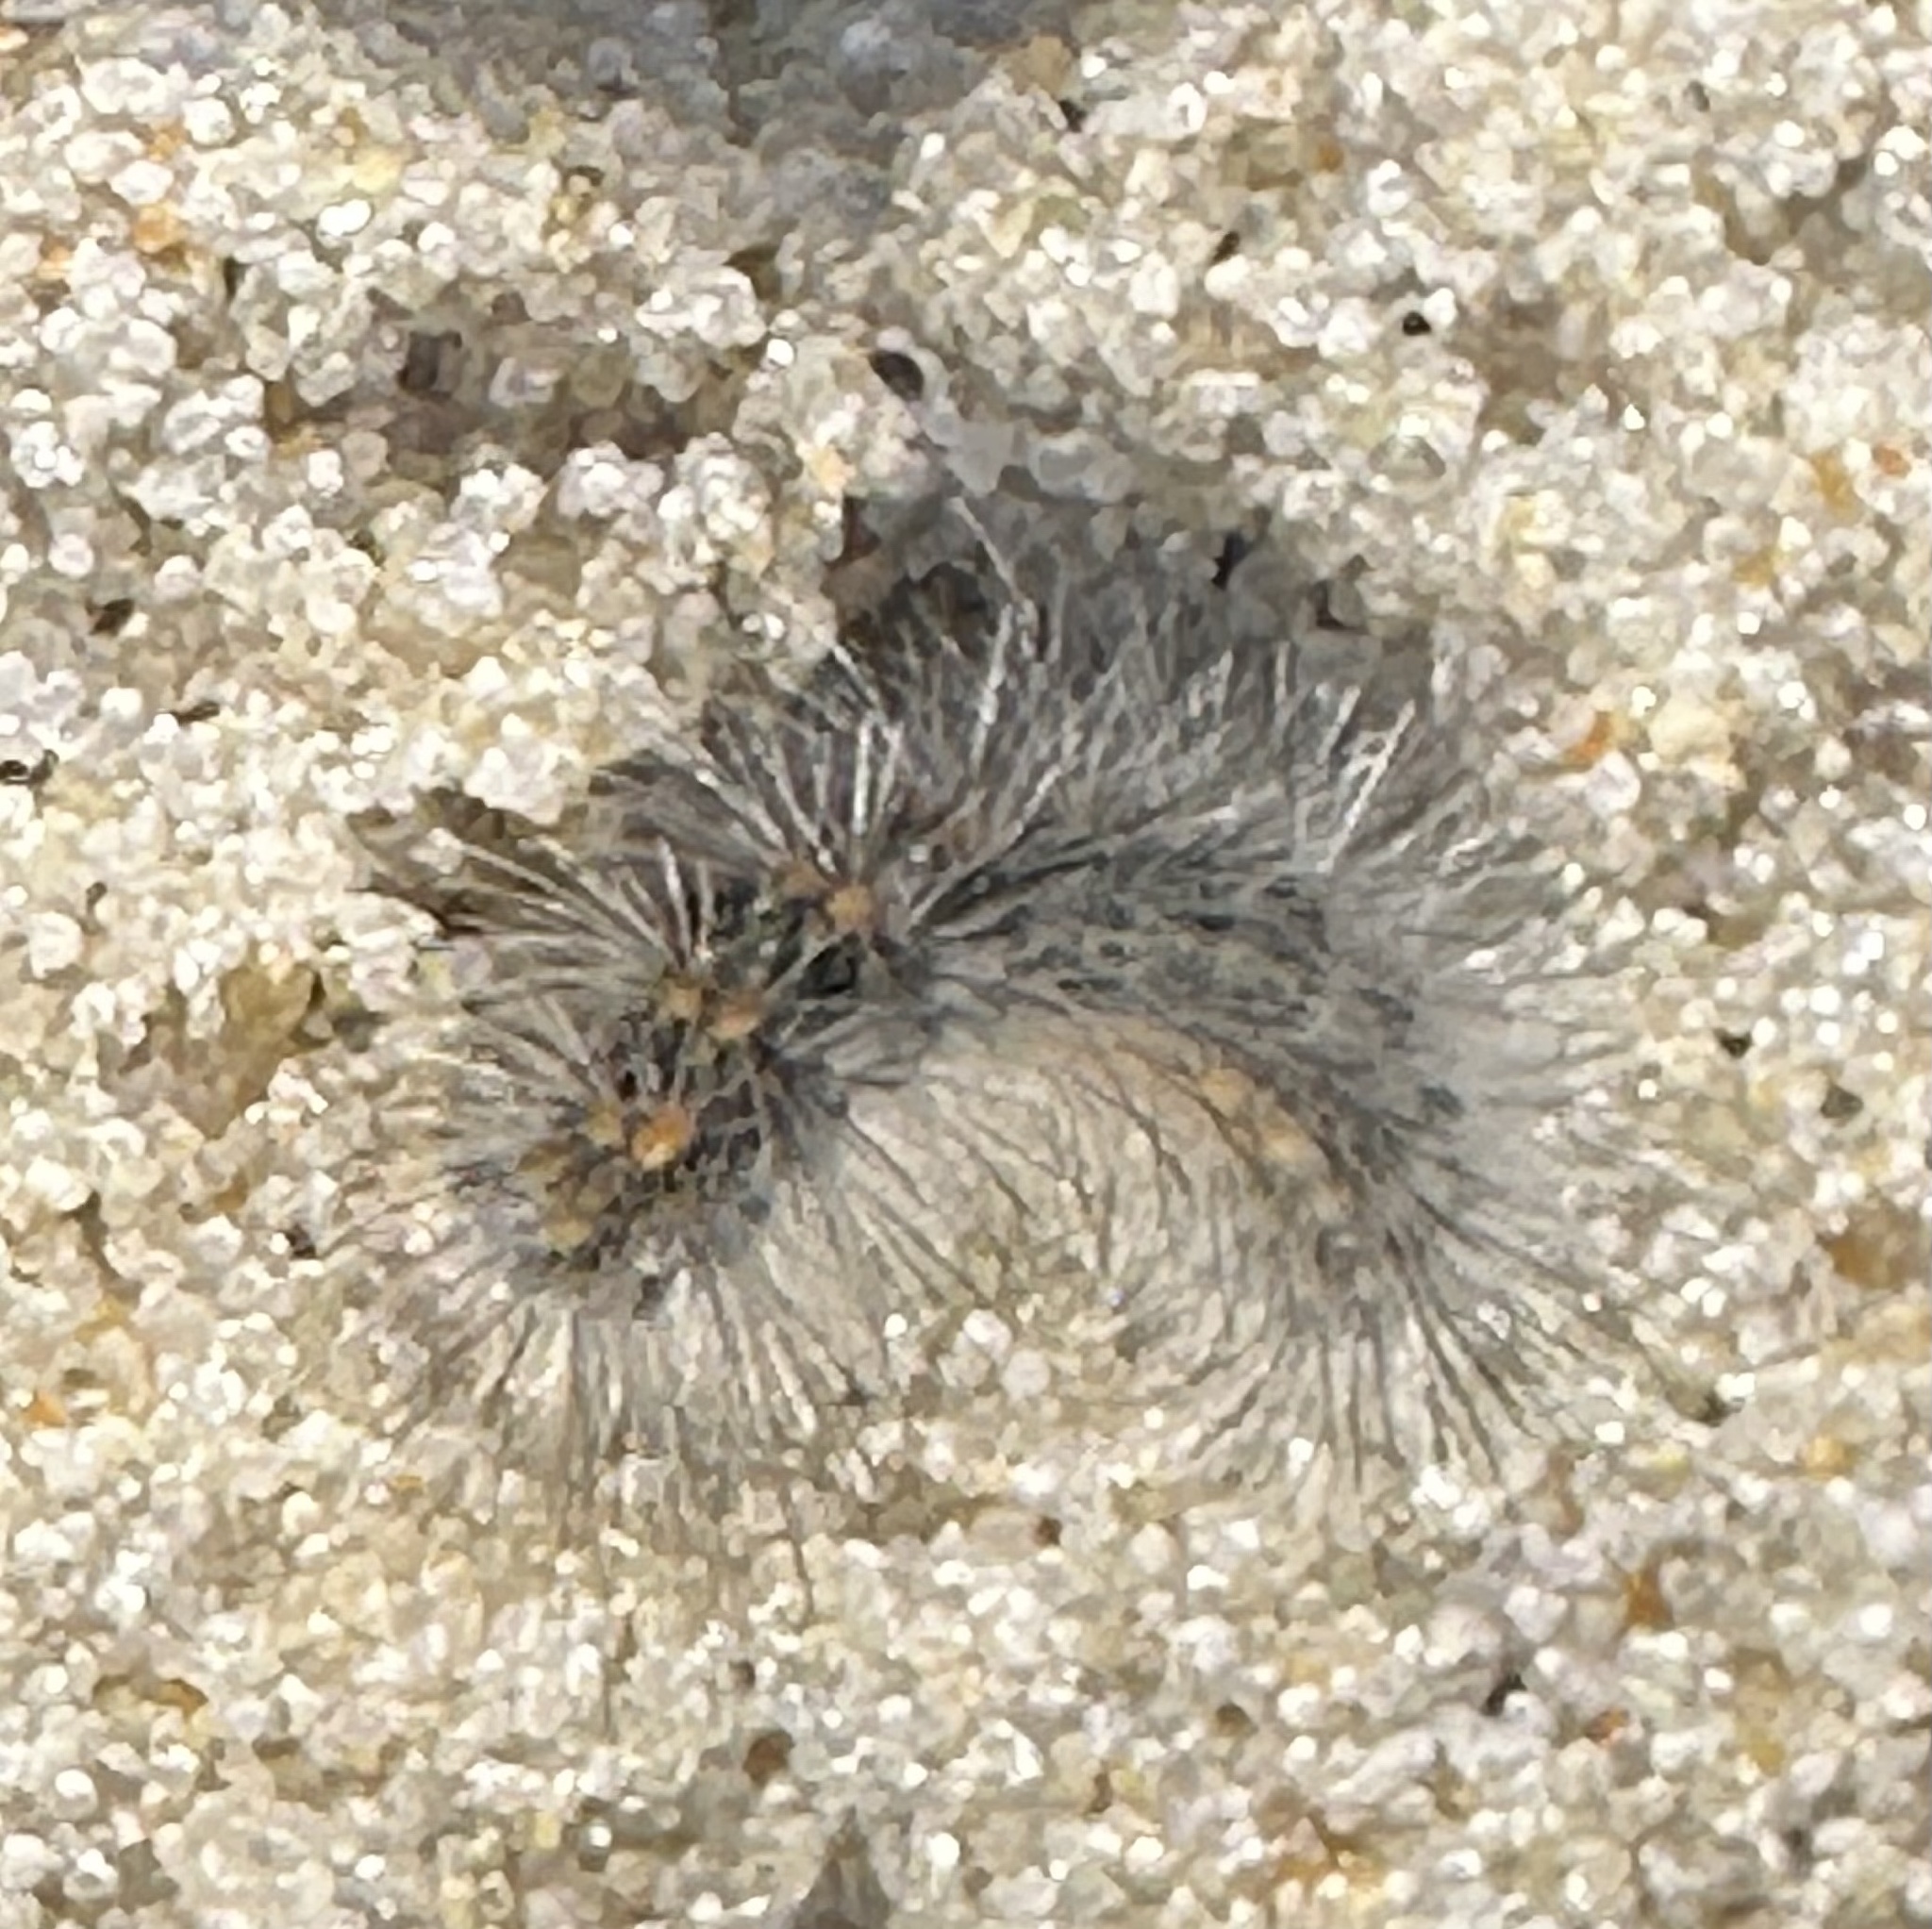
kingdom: Animalia
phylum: Arthropoda
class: Insecta
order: Lepidoptera
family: Erebidae
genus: Hyphantria
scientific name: Hyphantria cunea
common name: American white moth
